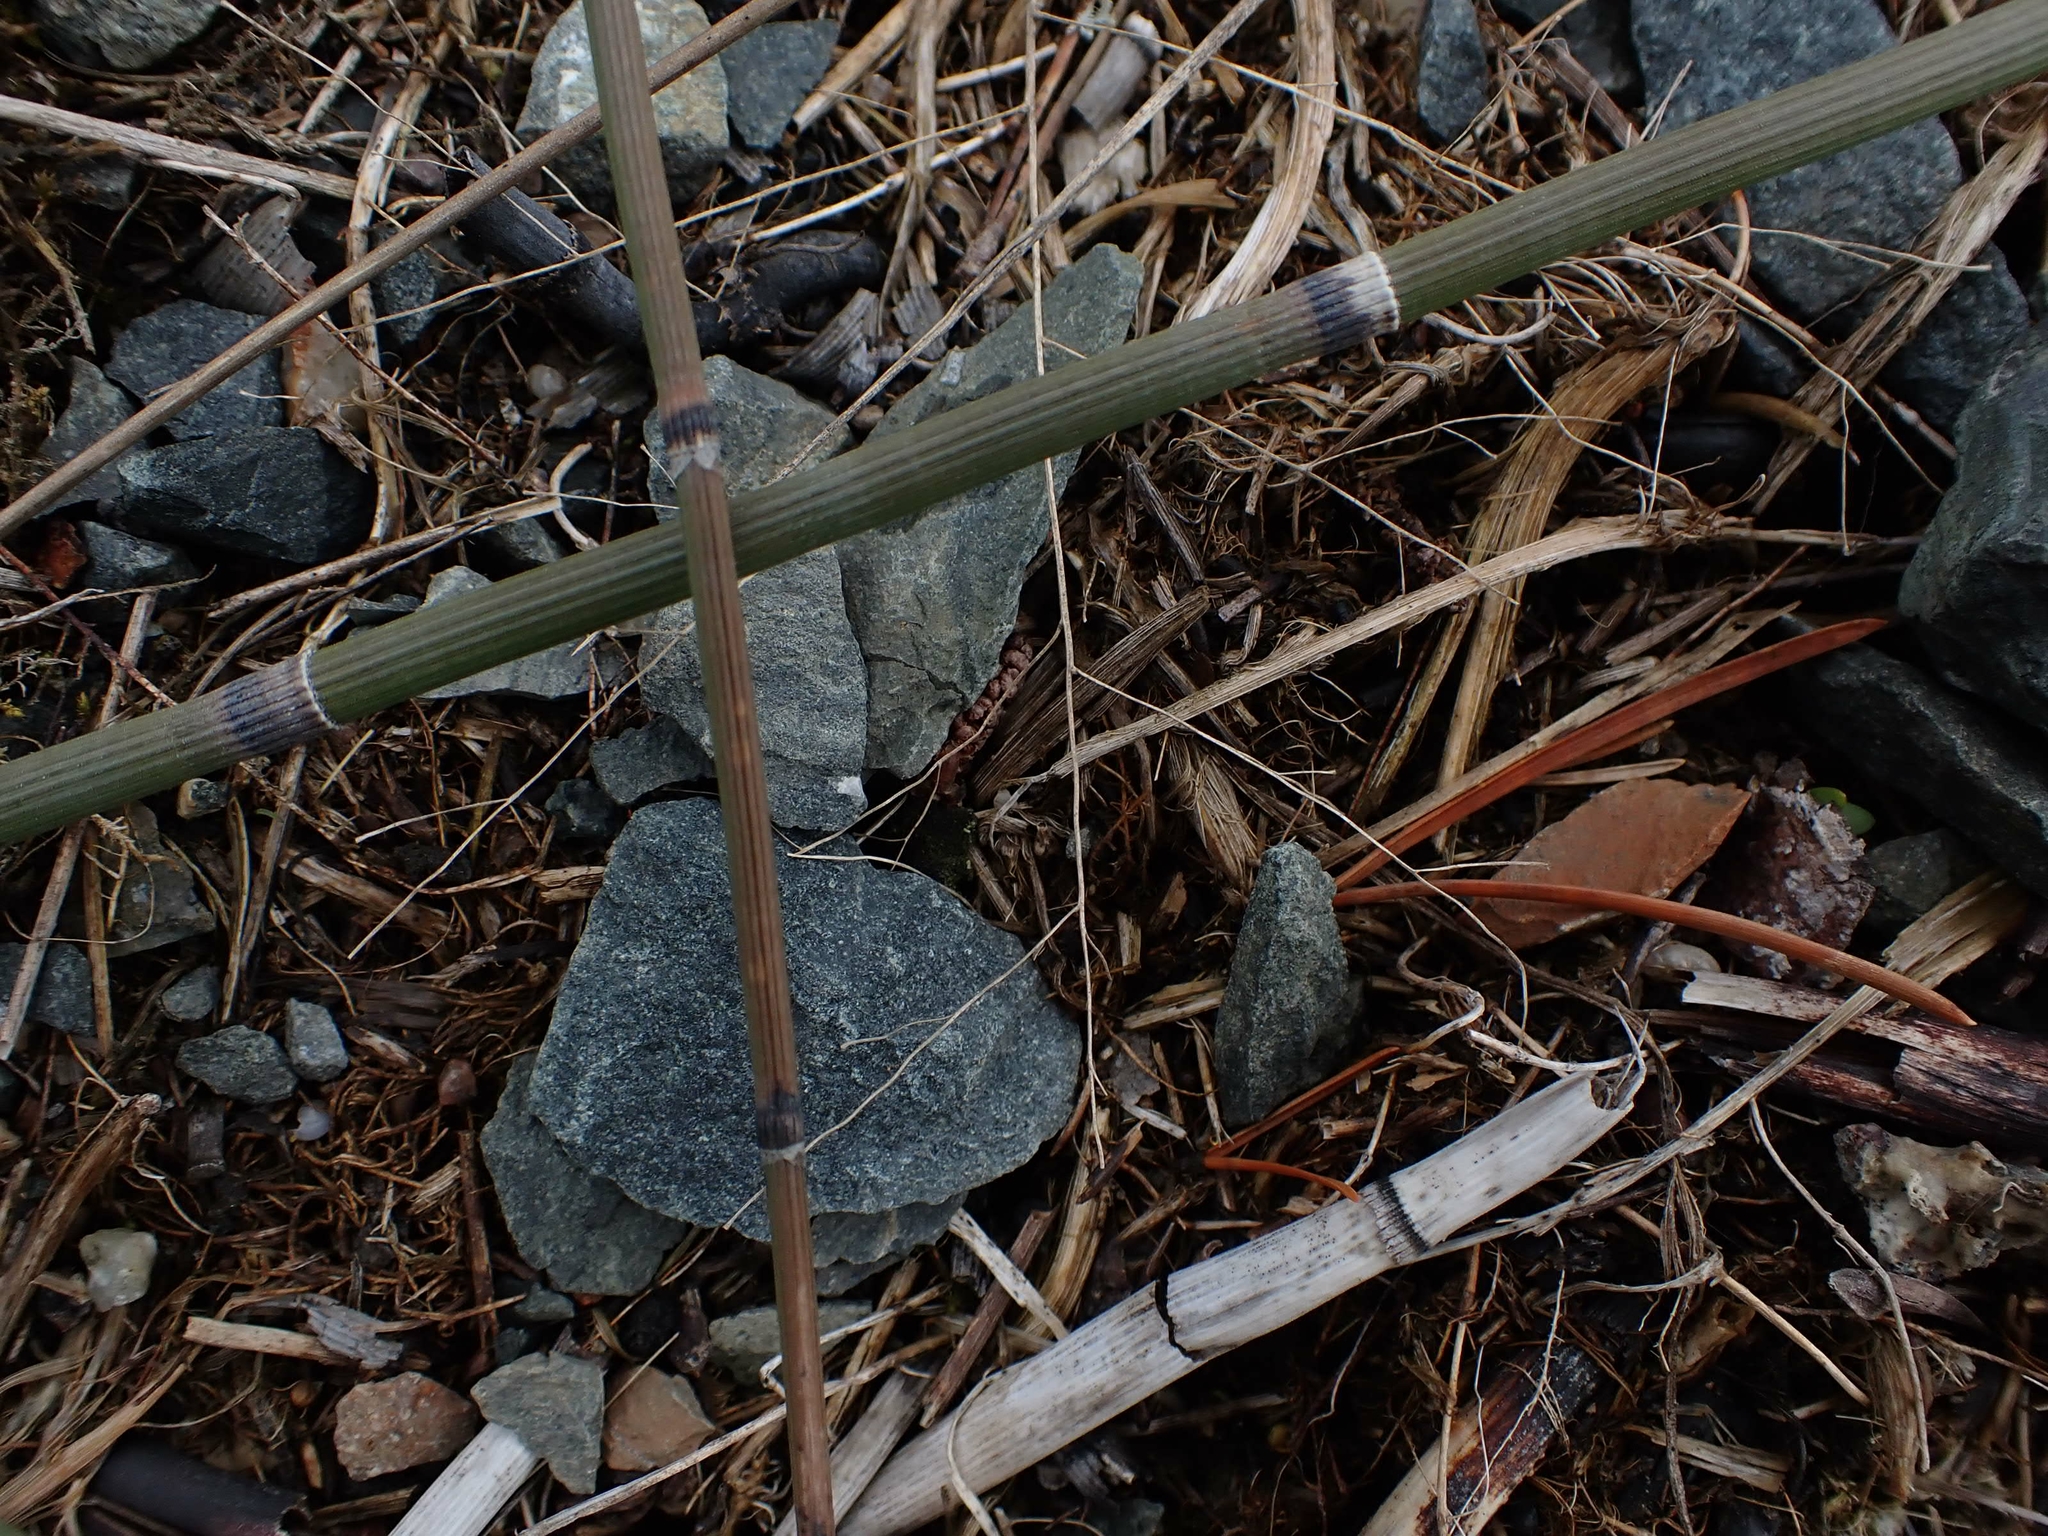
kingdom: Plantae
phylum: Tracheophyta
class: Polypodiopsida
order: Equisetales
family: Equisetaceae
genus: Equisetum
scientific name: Equisetum praealtum
